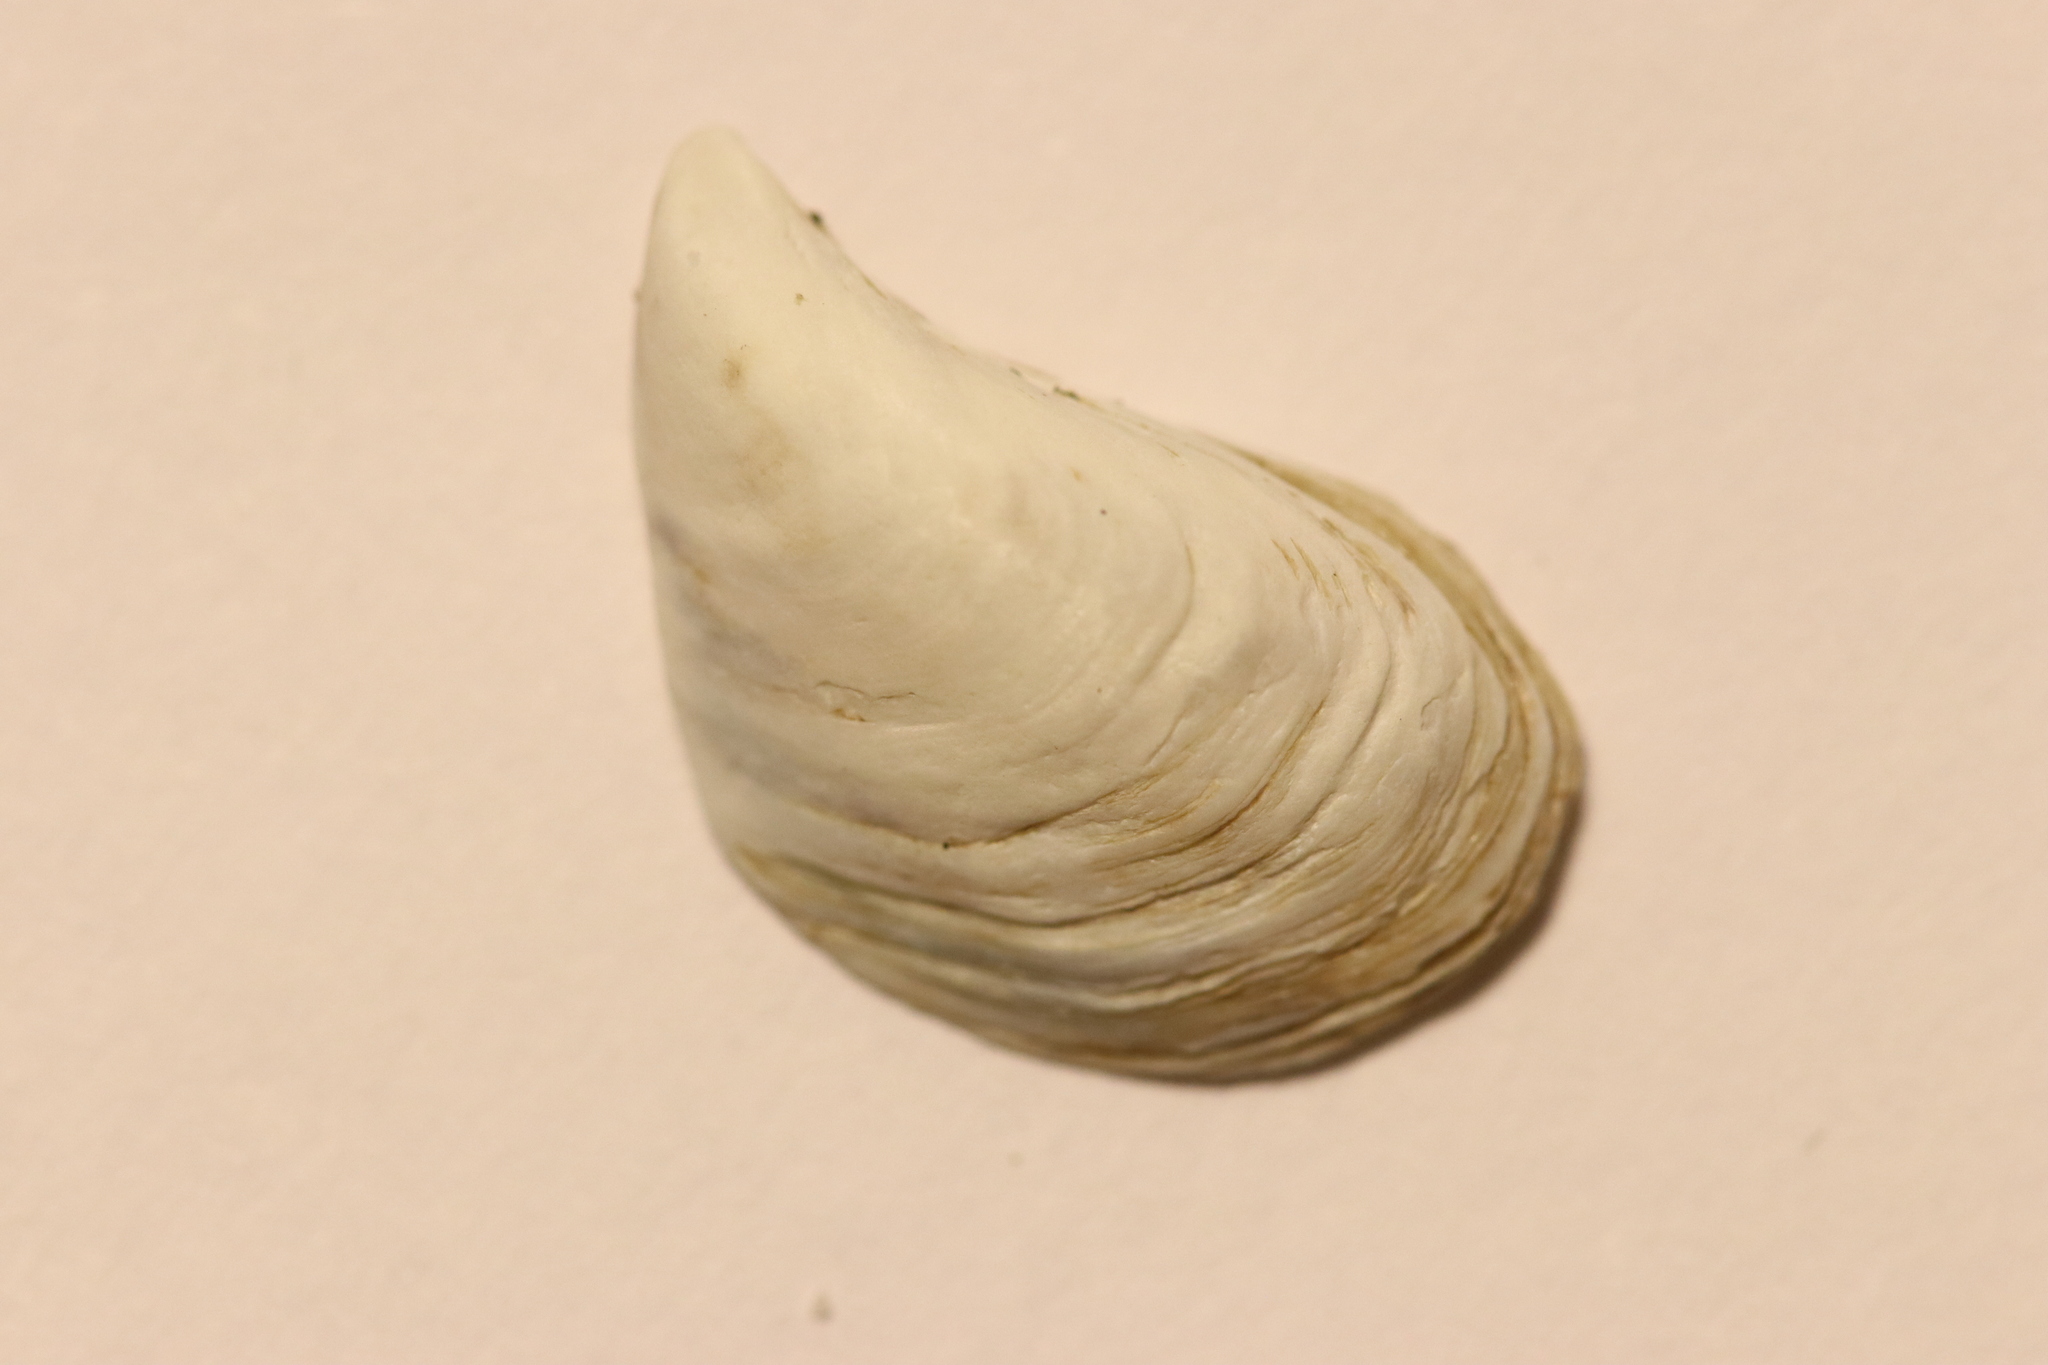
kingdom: Animalia
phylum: Mollusca
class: Bivalvia
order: Myida
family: Dreissenidae
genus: Dreissena
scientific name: Dreissena bugensis
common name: Quagga mussel
